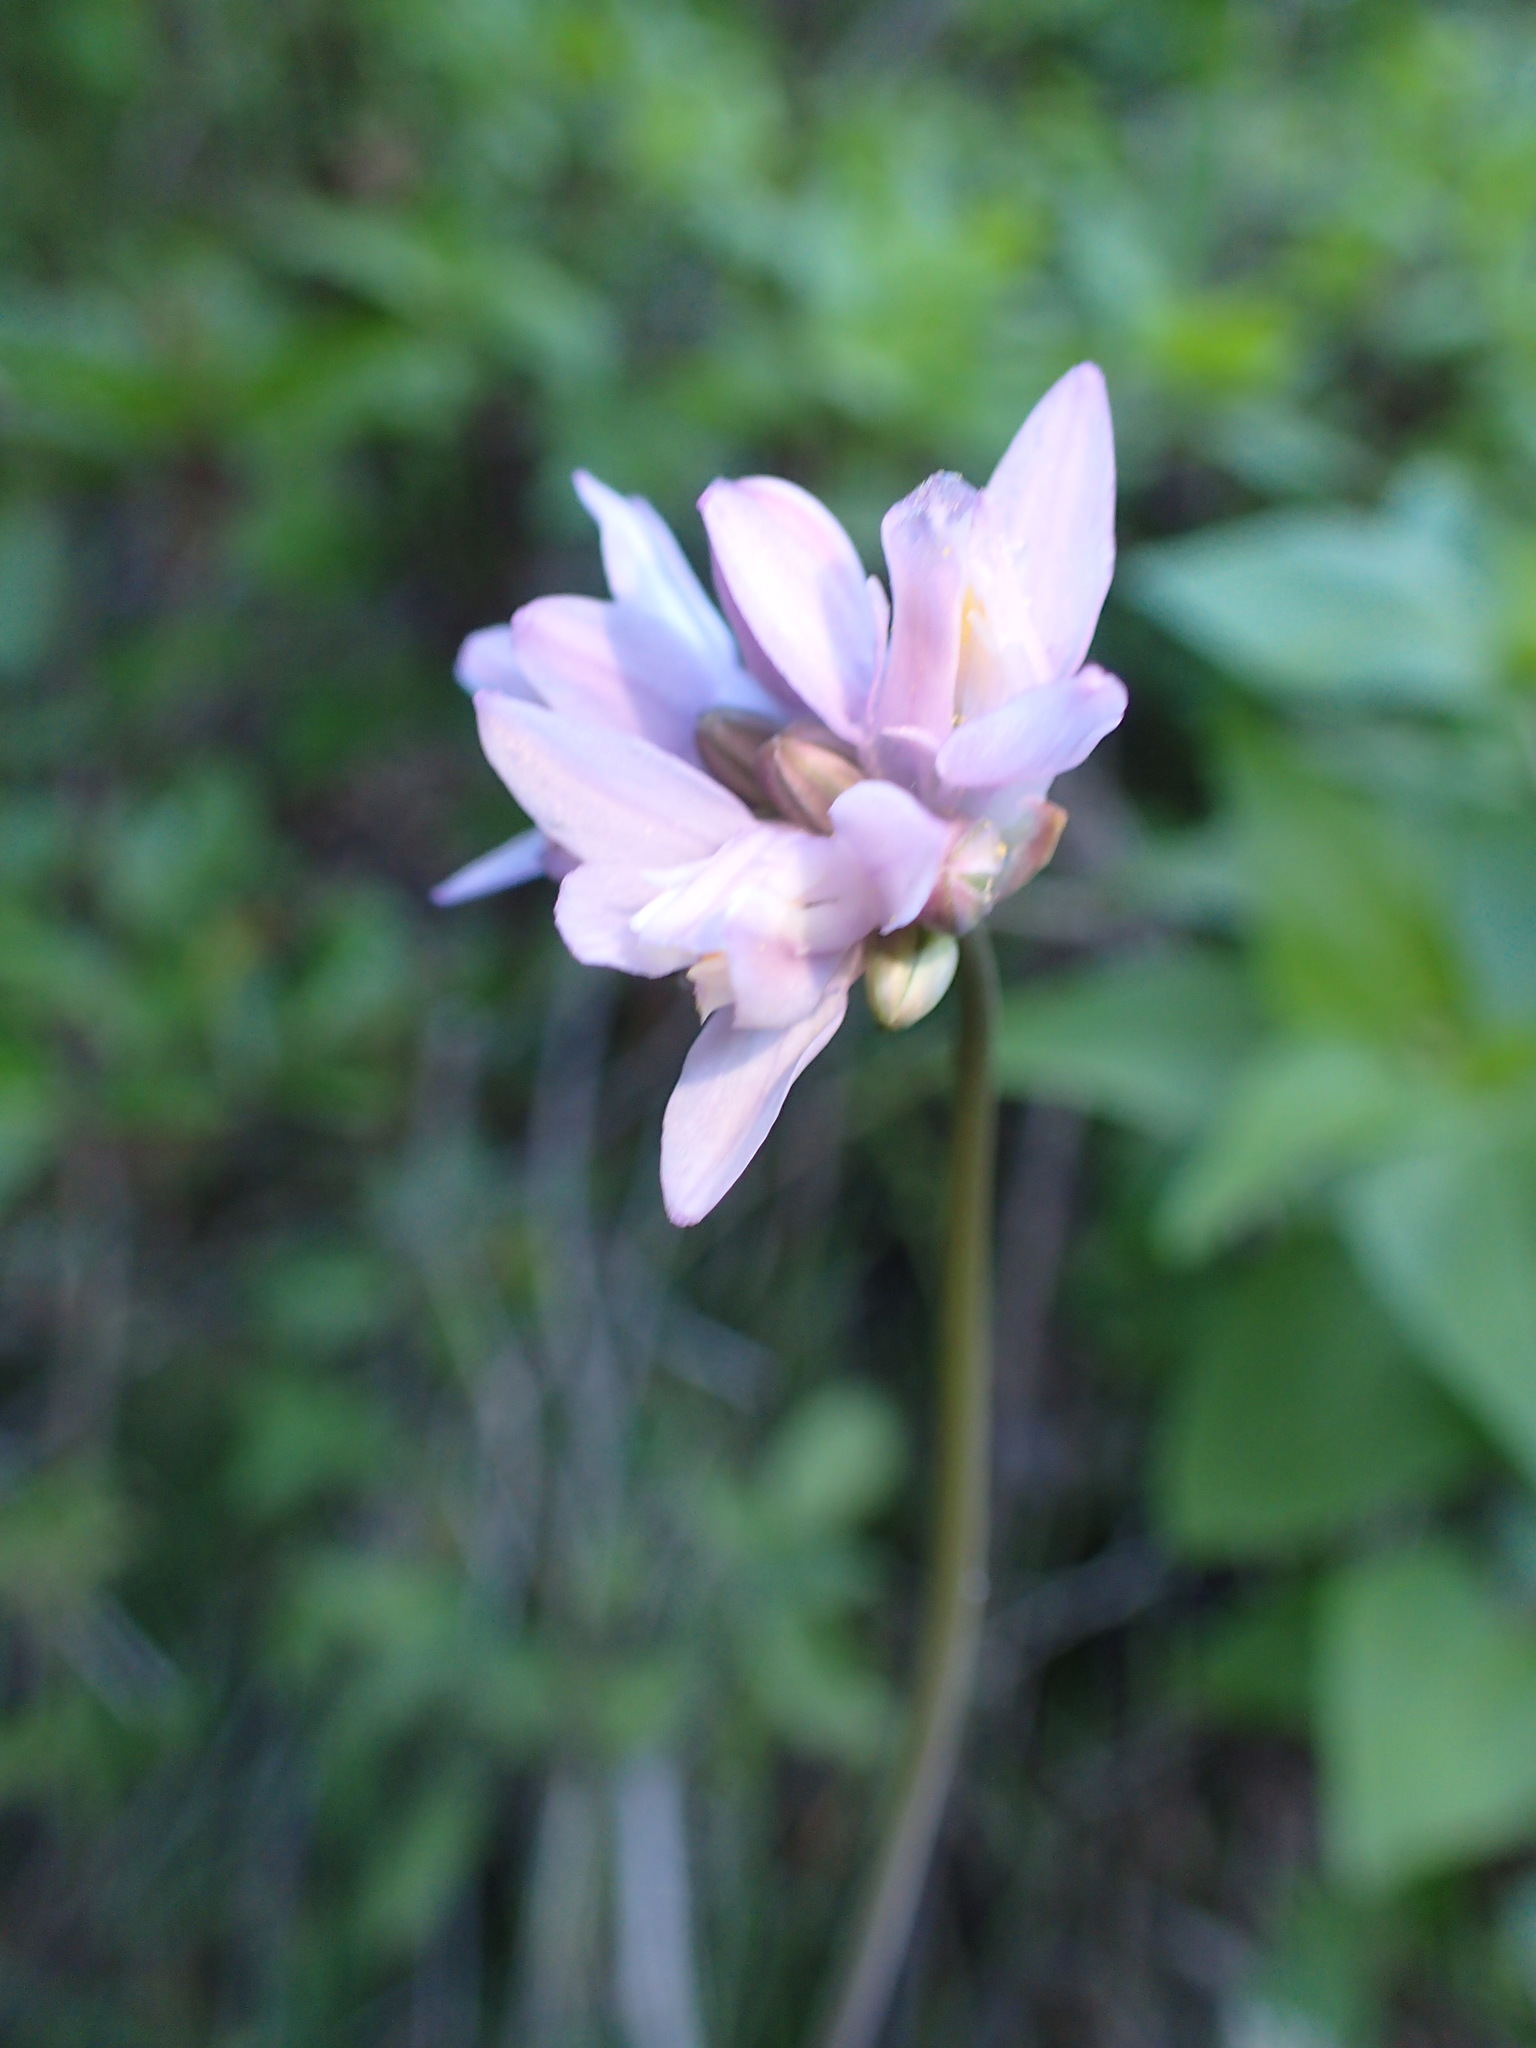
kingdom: Plantae
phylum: Tracheophyta
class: Liliopsida
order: Asparagales
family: Asparagaceae
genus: Dipterostemon
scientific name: Dipterostemon capitatus
